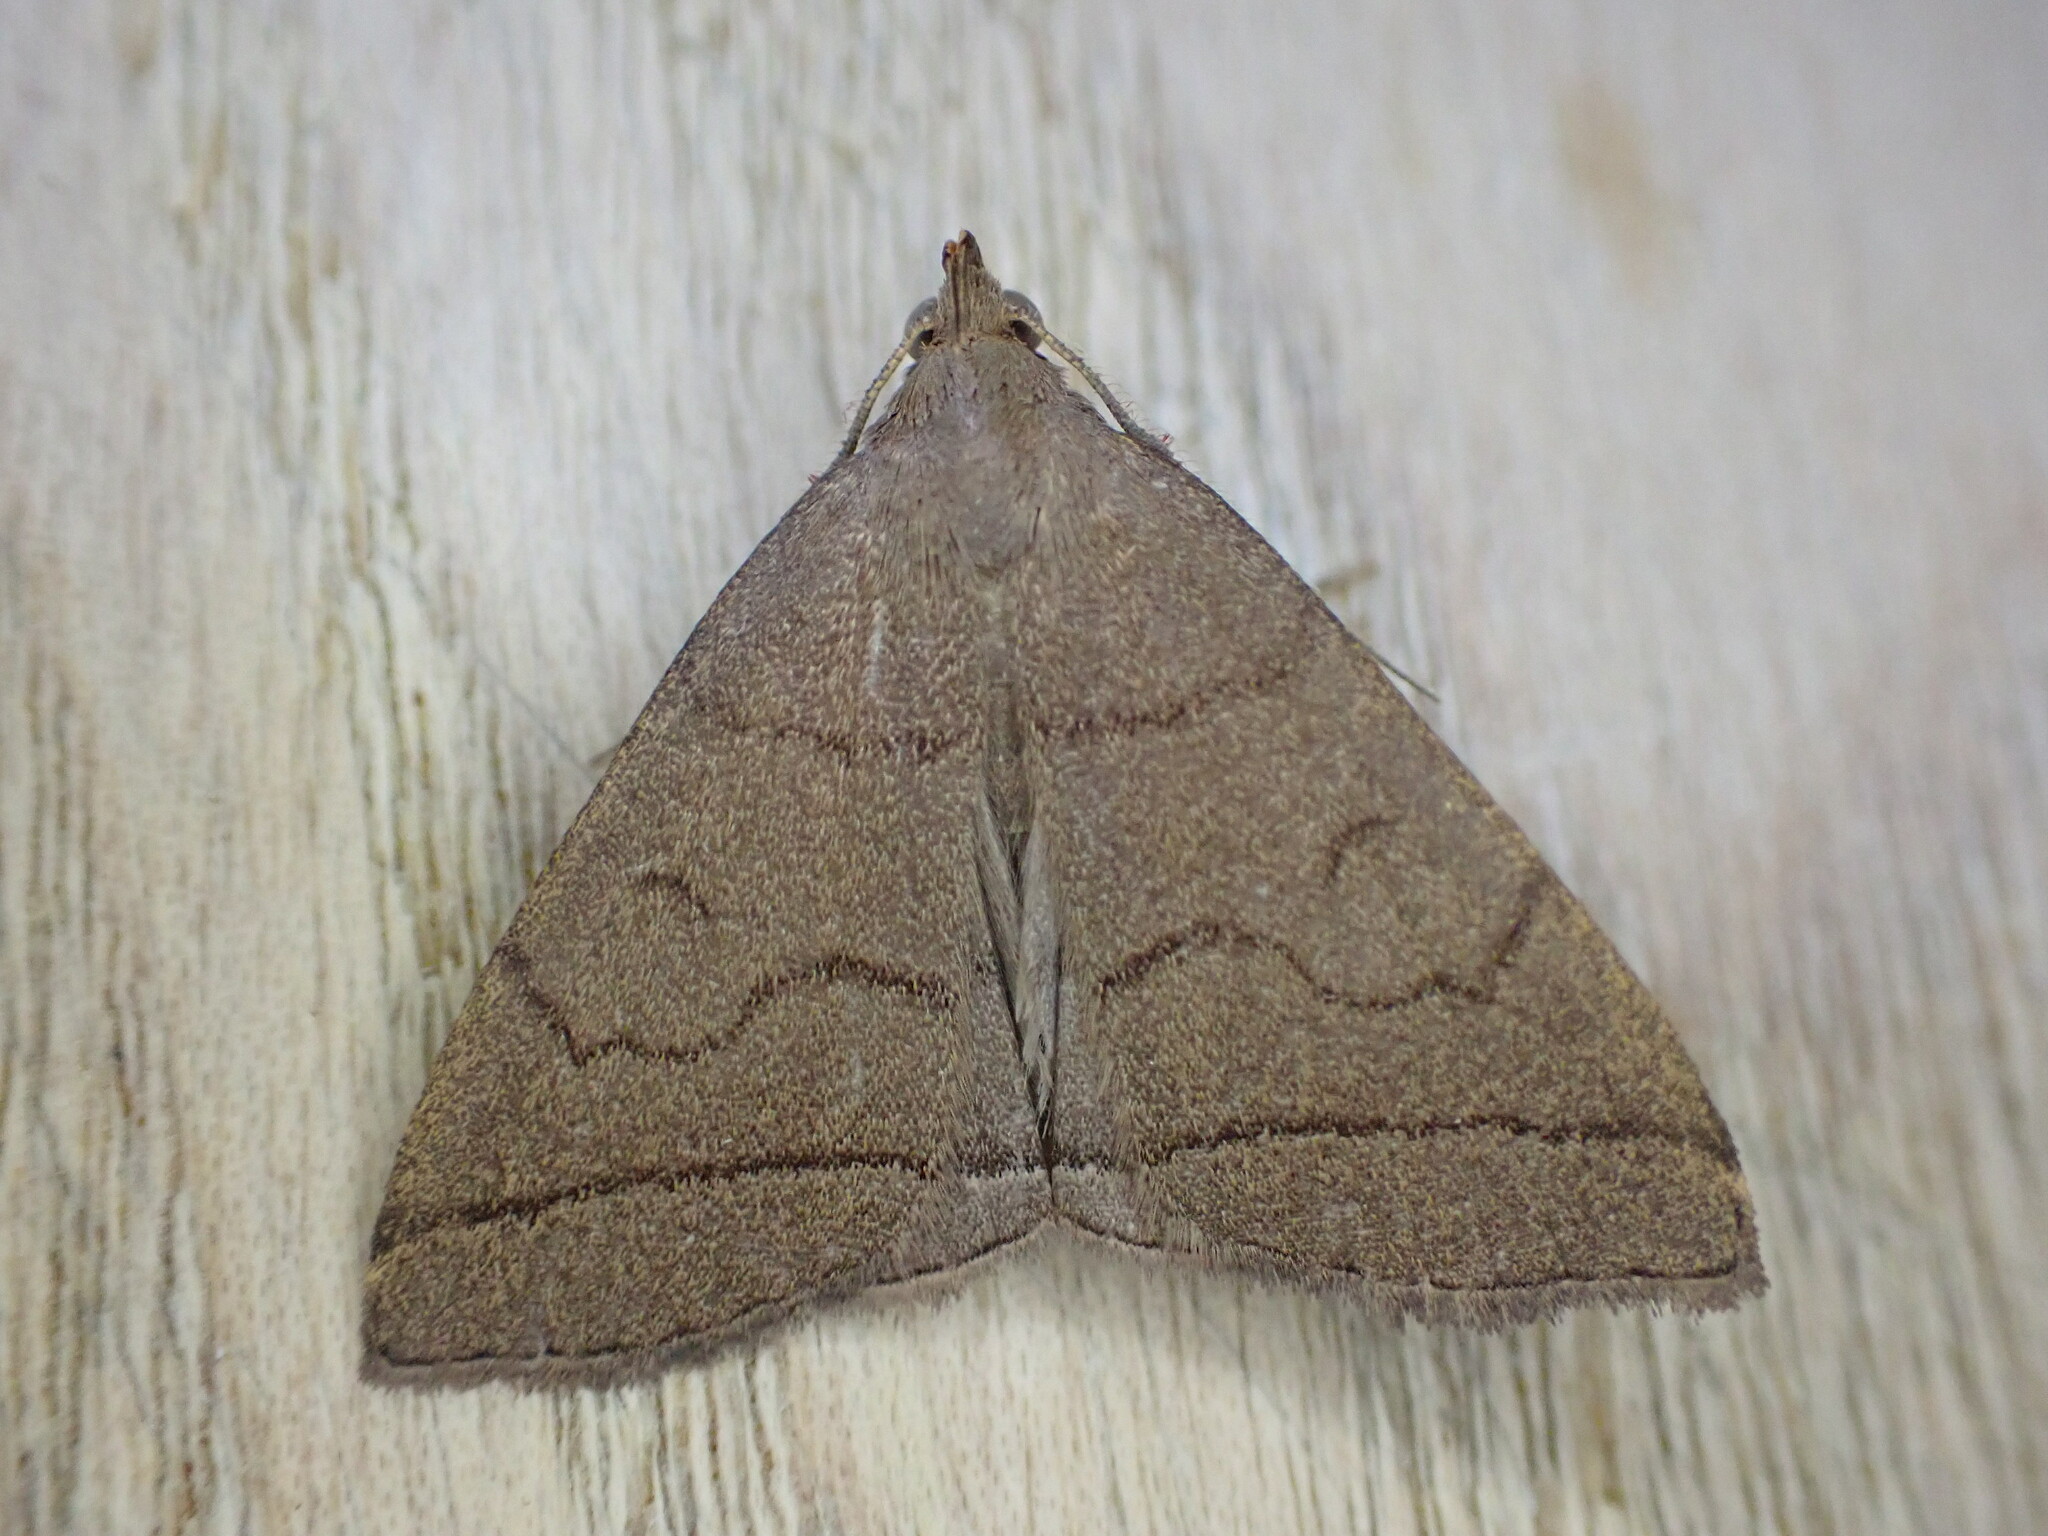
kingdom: Animalia
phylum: Arthropoda
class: Insecta
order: Lepidoptera
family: Erebidae
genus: Herminia
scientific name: Herminia tarsipennalis
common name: Fan-foot
